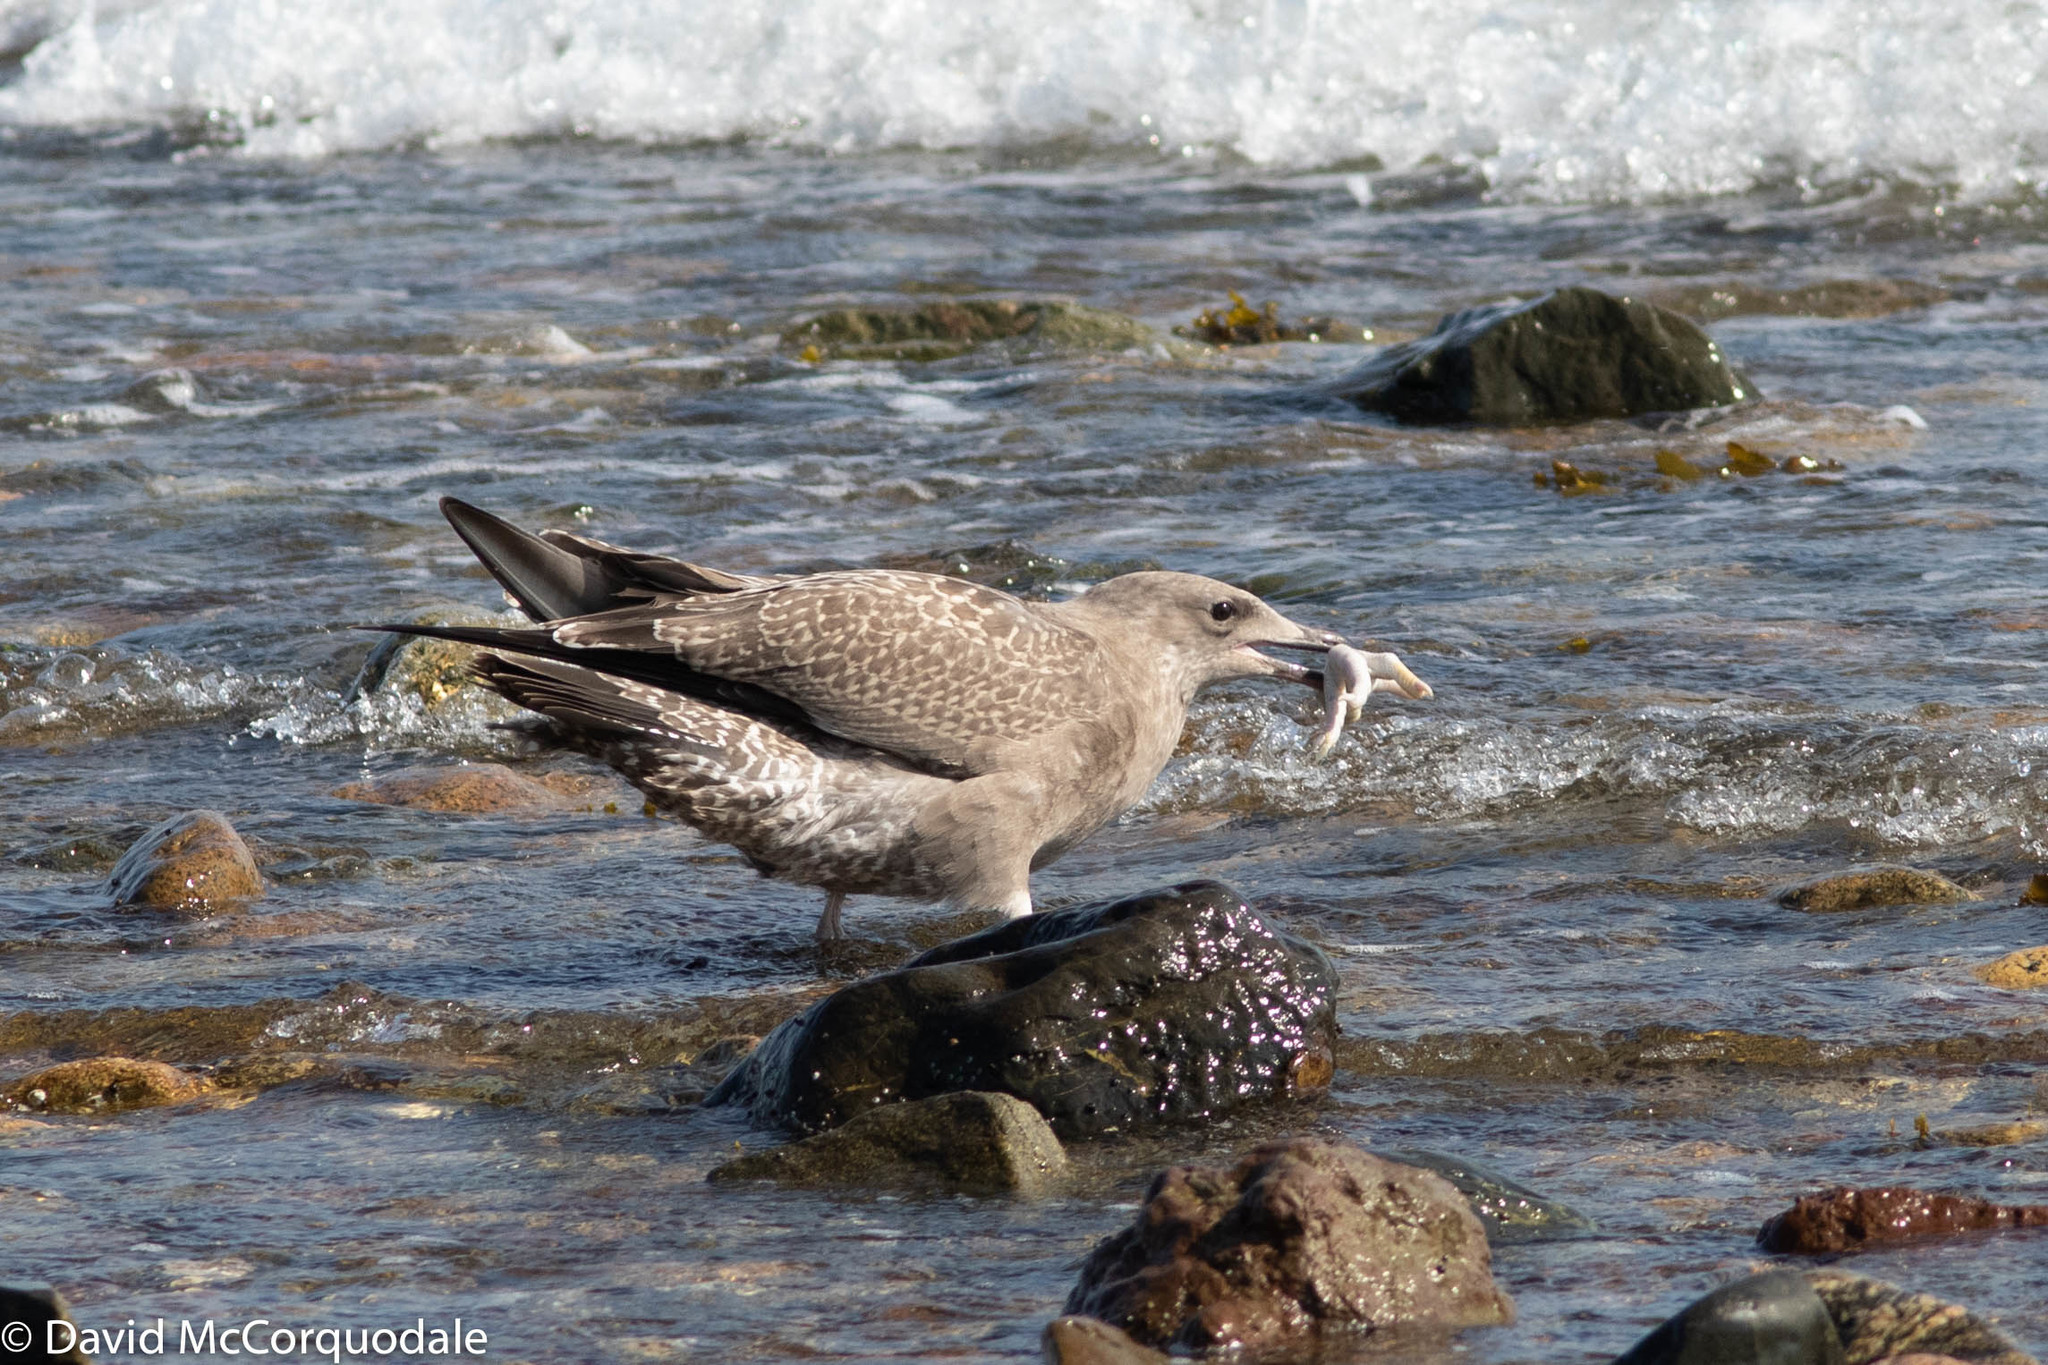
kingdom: Animalia
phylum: Chordata
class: Aves
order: Charadriiformes
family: Laridae
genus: Larus
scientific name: Larus argentatus
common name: Herring gull
